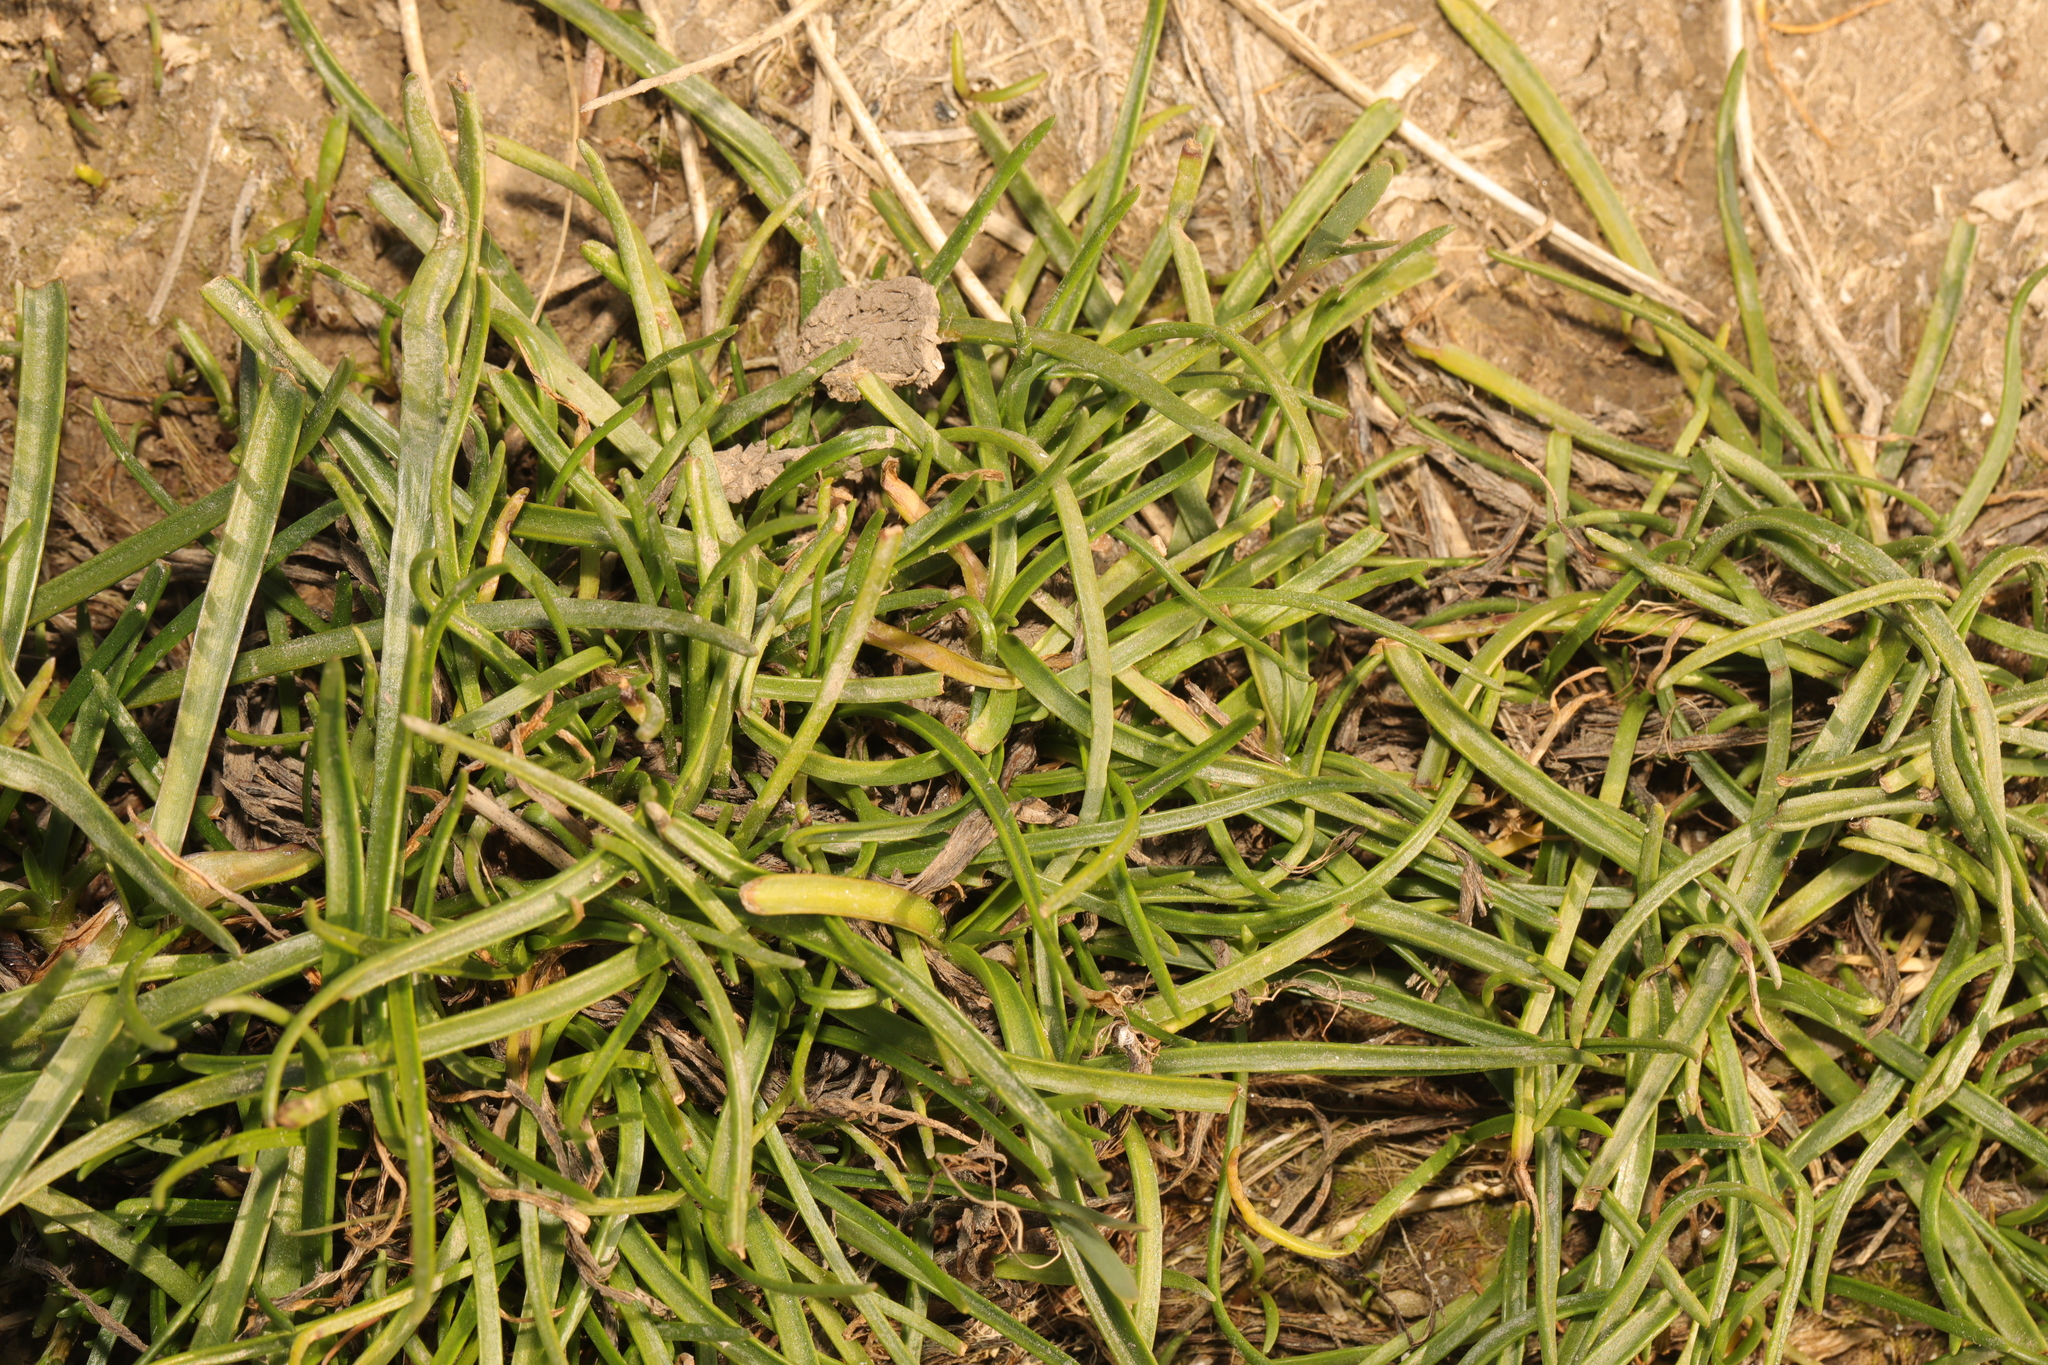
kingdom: Plantae
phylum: Tracheophyta
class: Magnoliopsida
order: Lamiales
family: Plantaginaceae
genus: Plantago
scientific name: Plantago maritima
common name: Sea plantain
